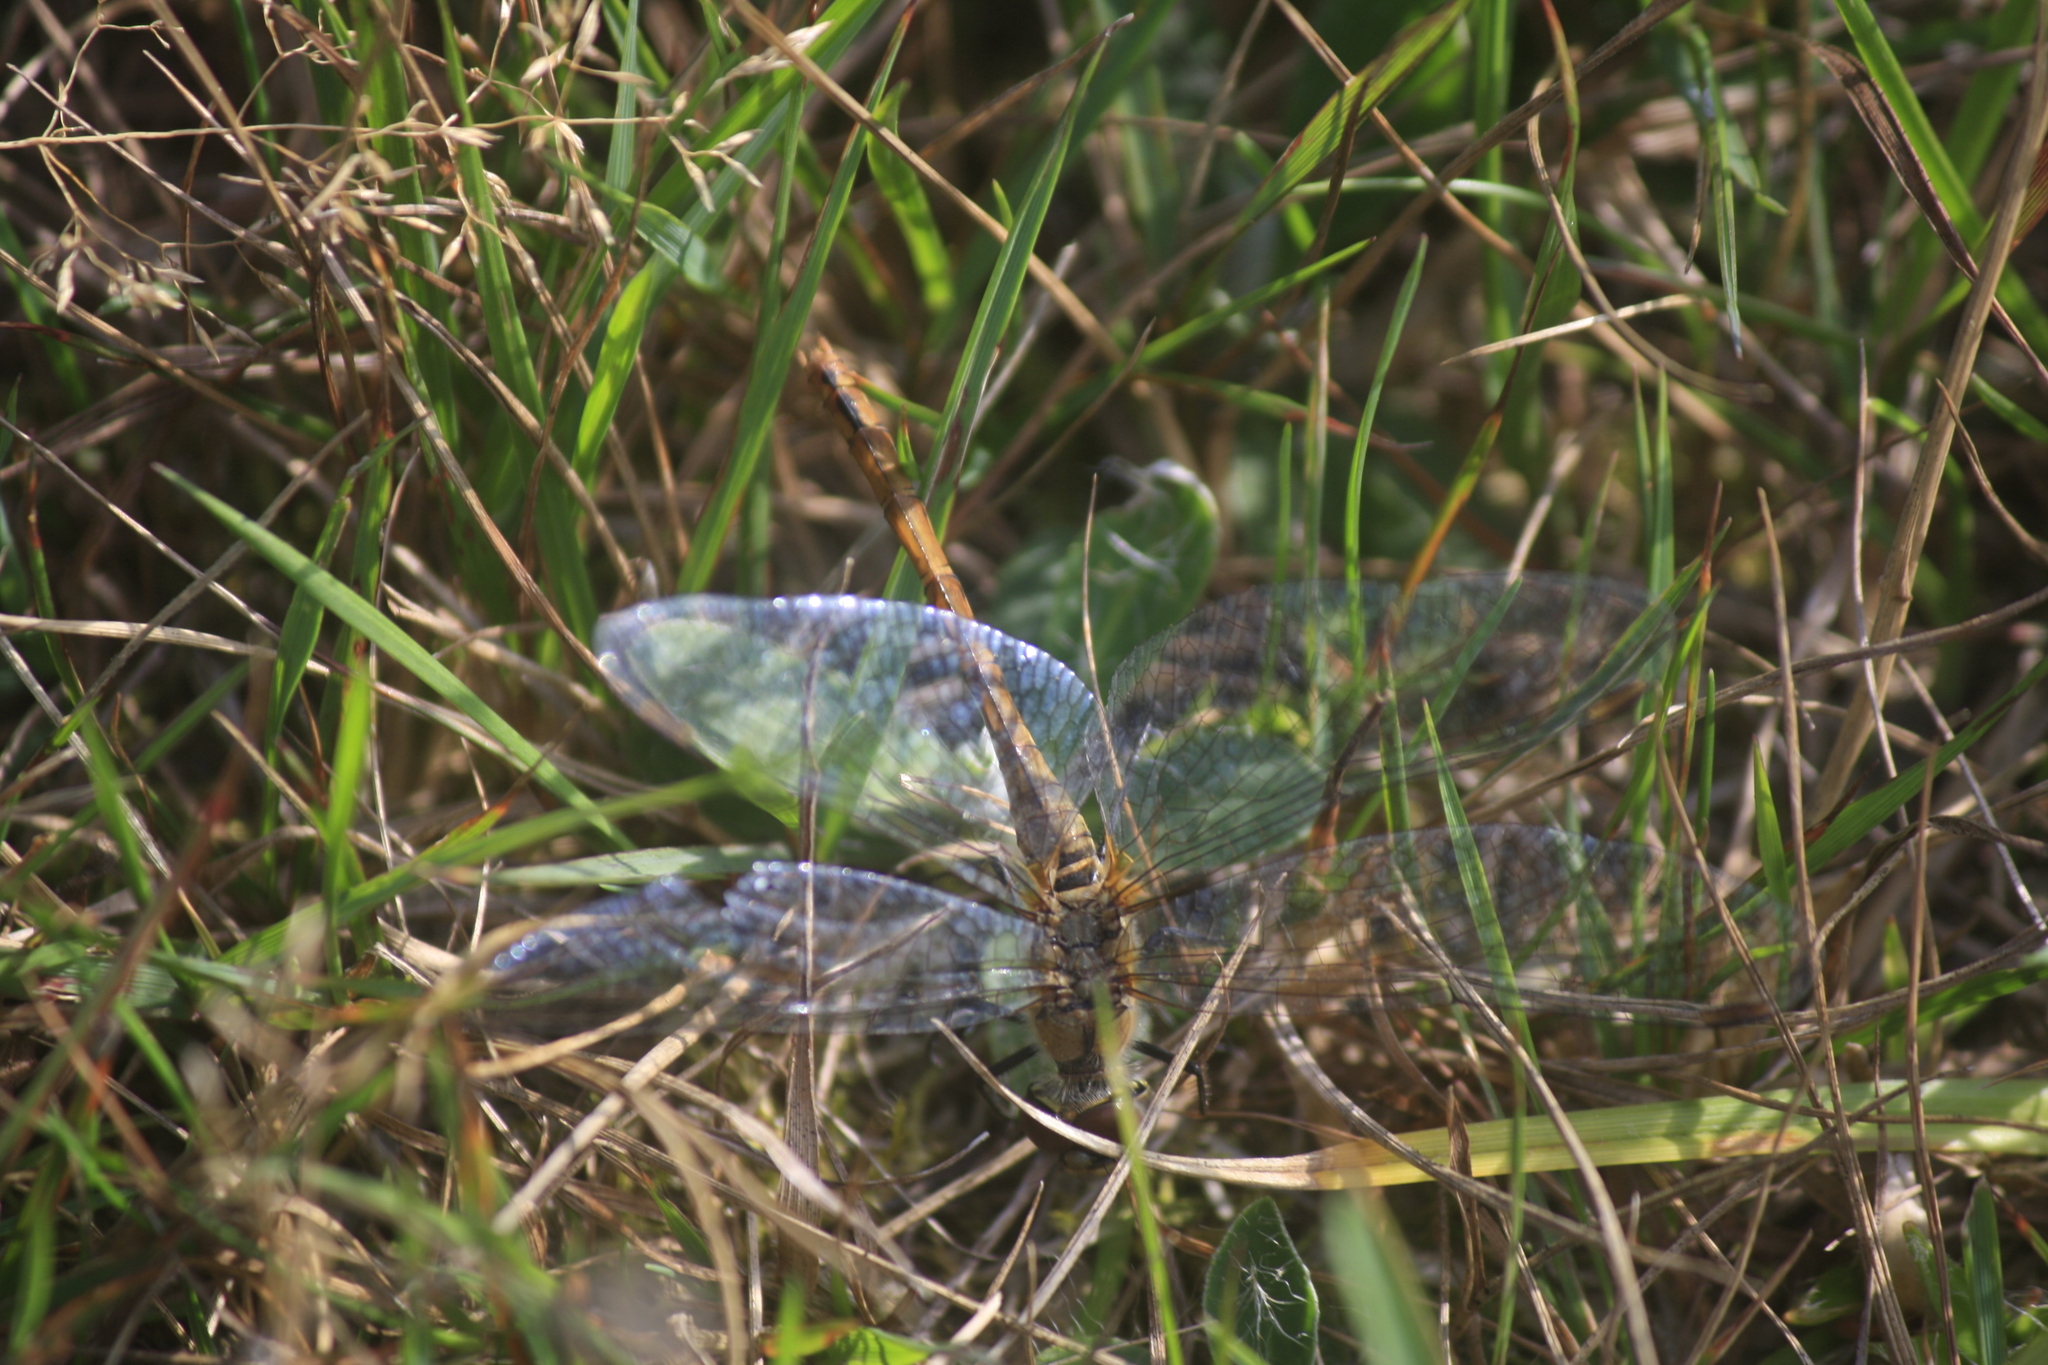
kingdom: Animalia
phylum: Arthropoda
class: Insecta
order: Odonata
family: Libellulidae
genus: Sympetrum
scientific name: Sympetrum sanguineum
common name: Ruddy darter
